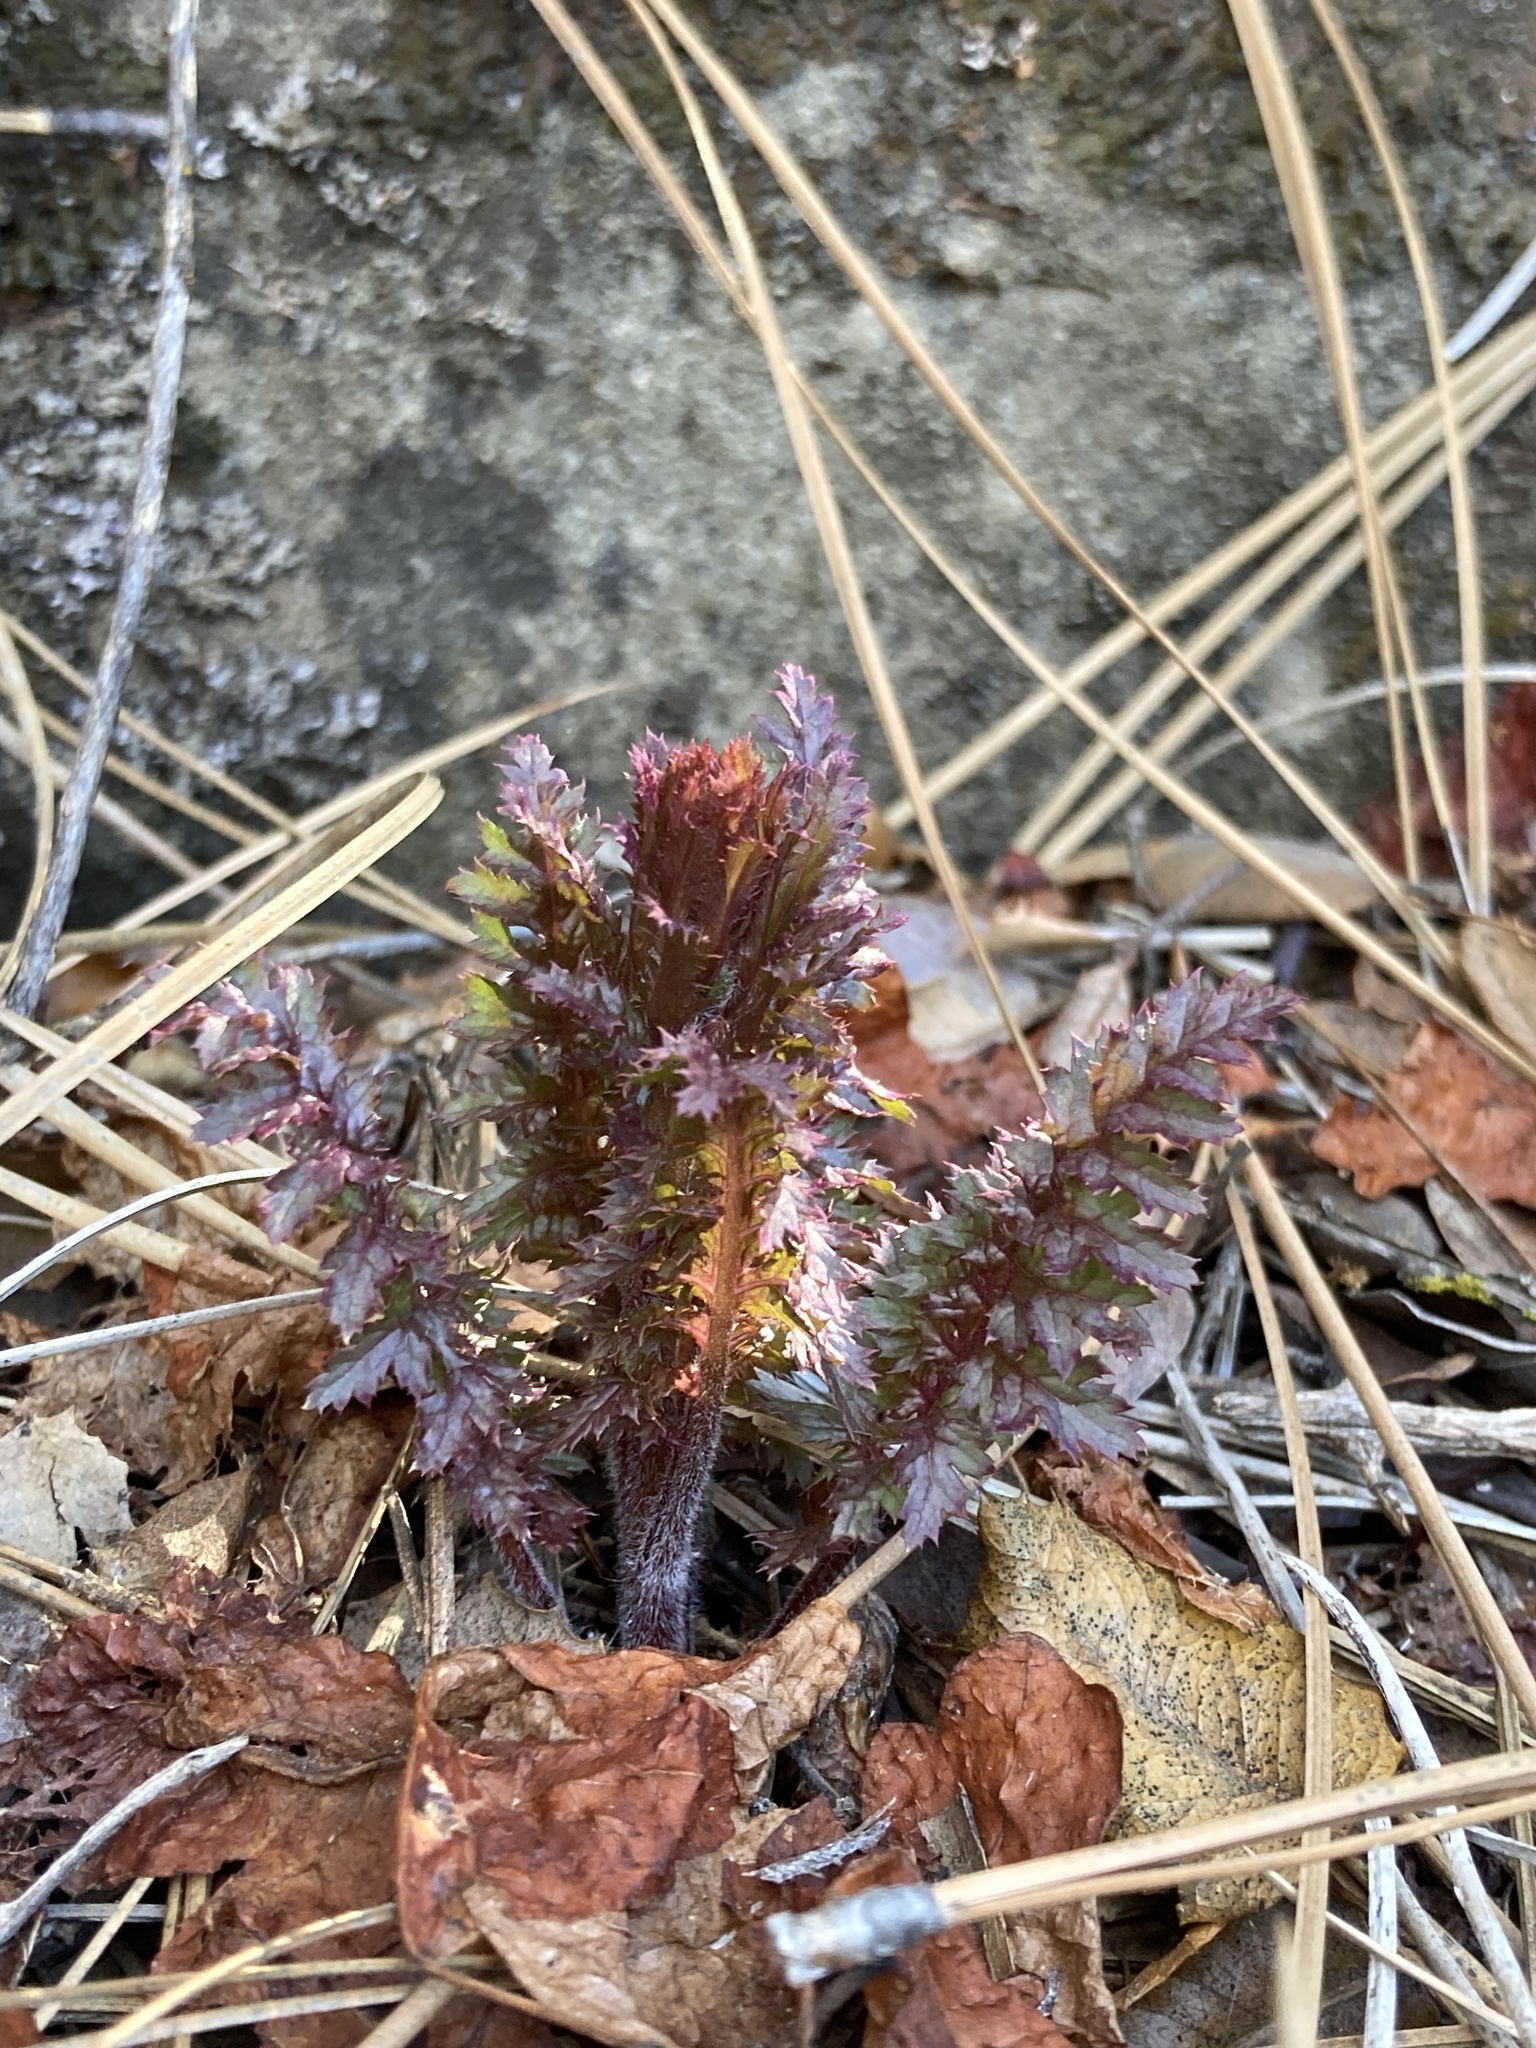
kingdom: Plantae
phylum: Tracheophyta
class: Magnoliopsida
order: Lamiales
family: Orobanchaceae
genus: Pedicularis
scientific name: Pedicularis densiflora
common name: Indian warrior
